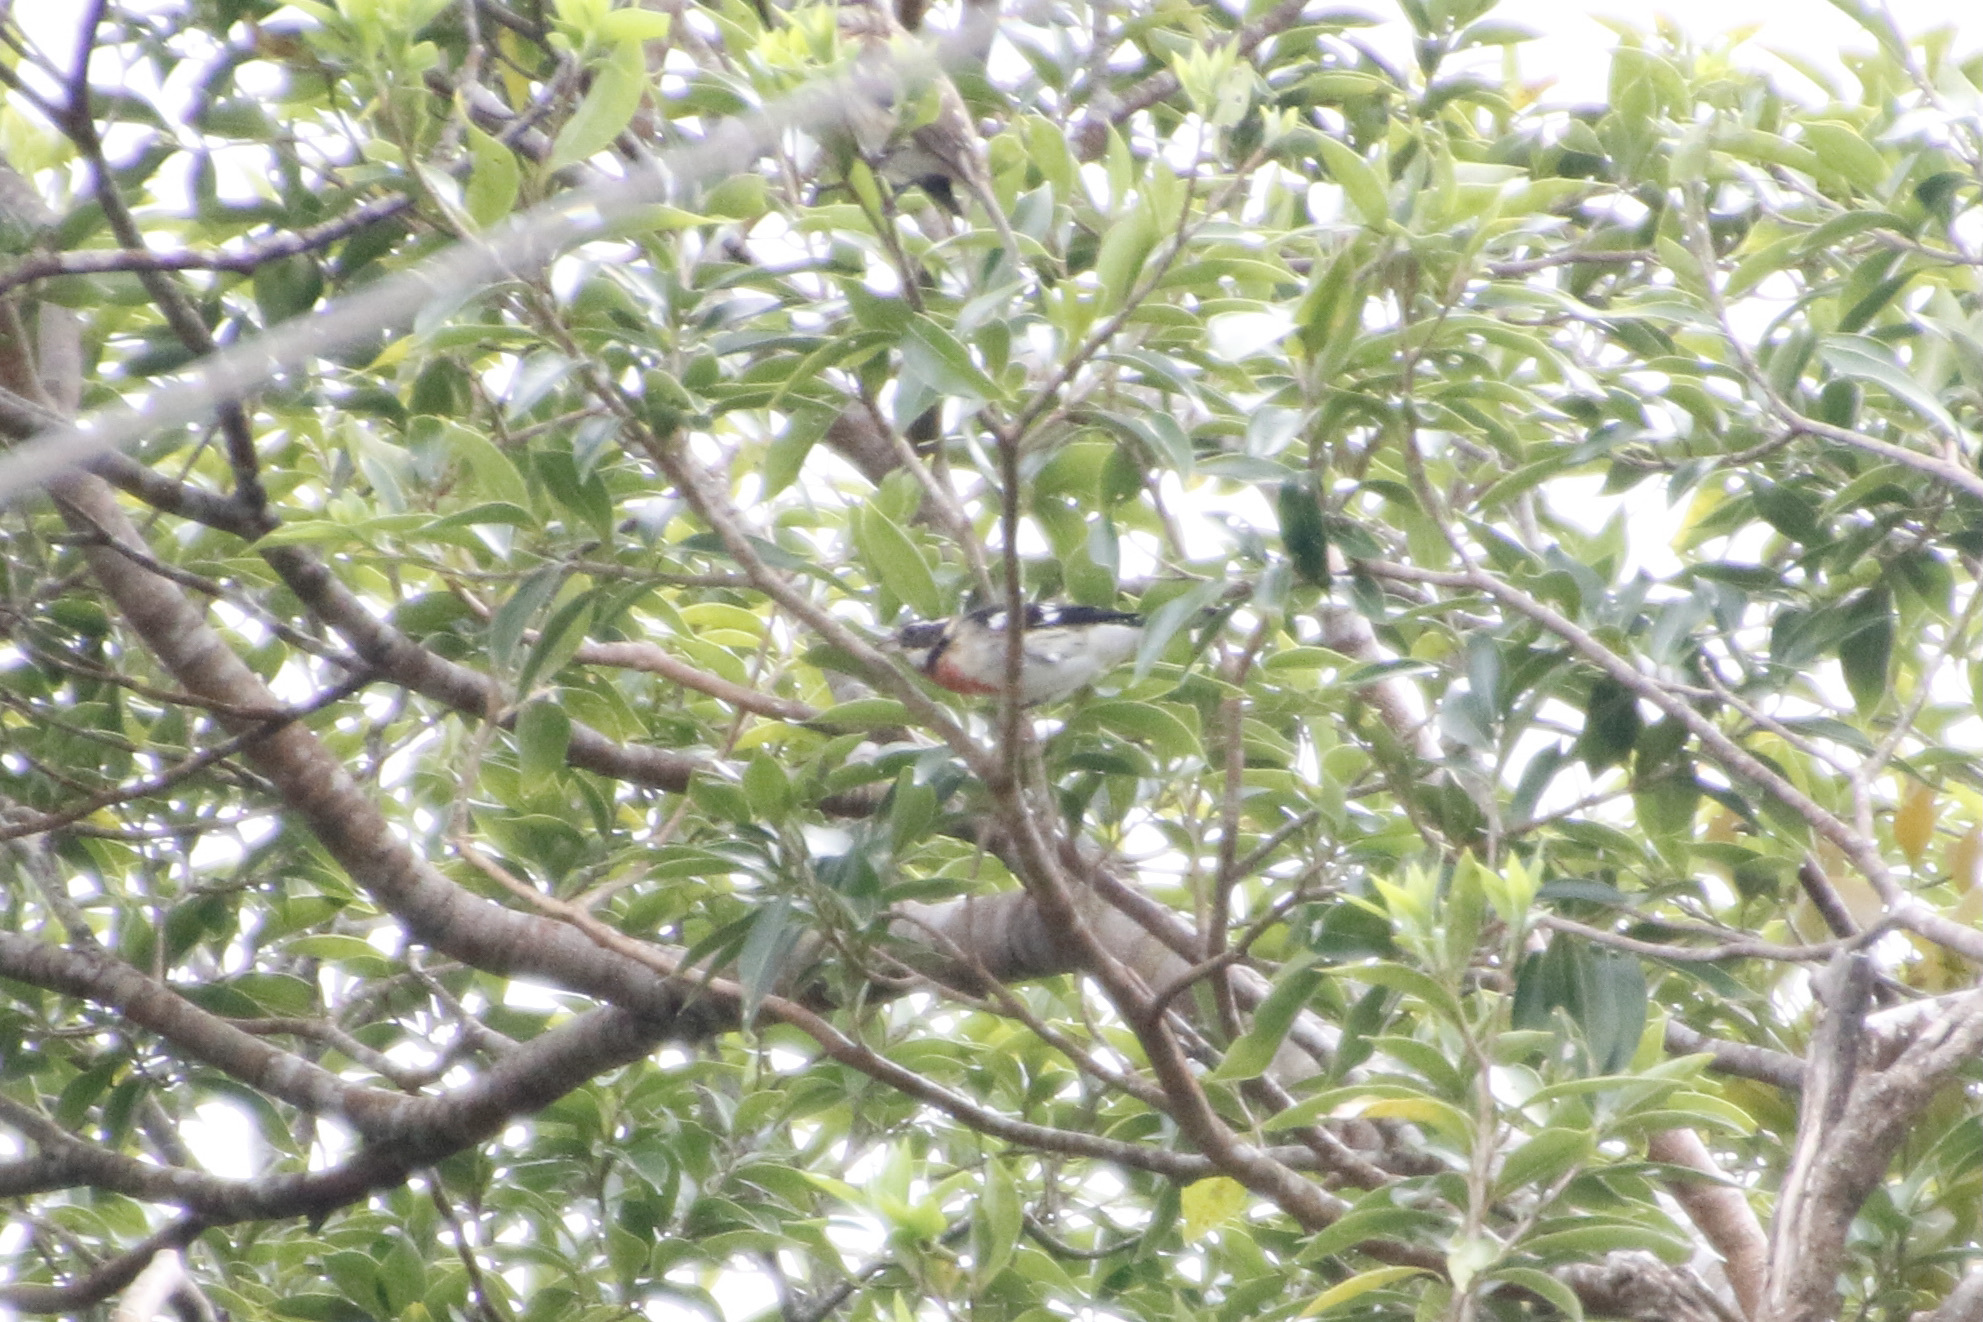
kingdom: Animalia
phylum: Chordata
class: Aves
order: Passeriformes
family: Cardinalidae
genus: Pheucticus
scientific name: Pheucticus ludovicianus
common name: Rose-breasted grosbeak
